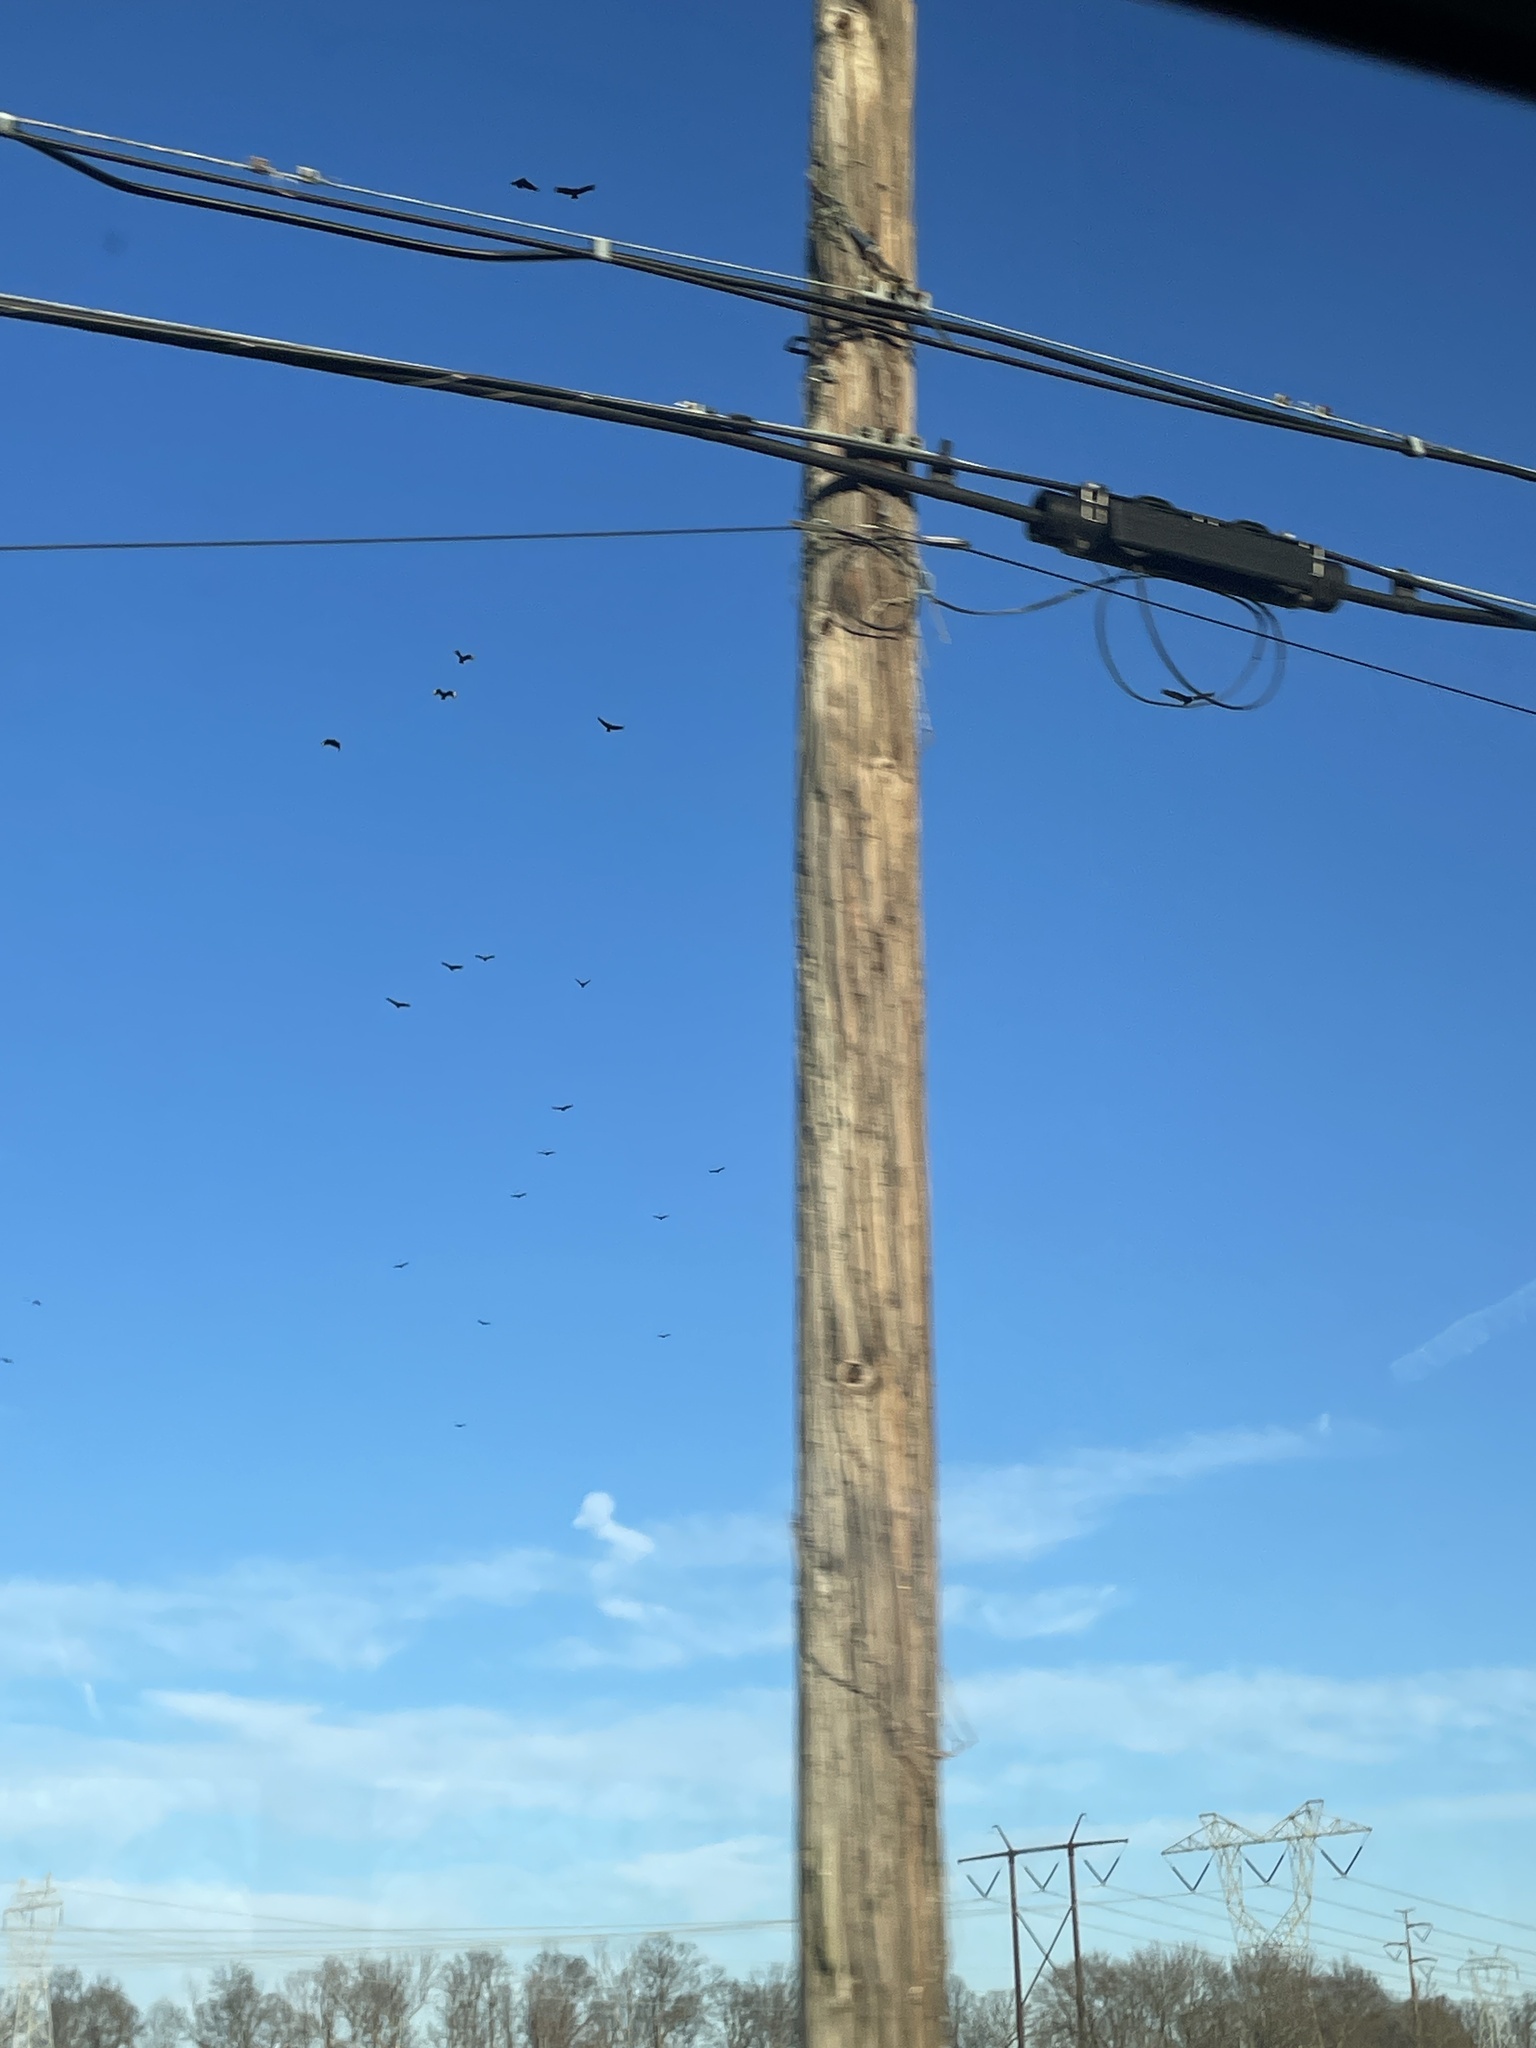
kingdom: Animalia
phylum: Chordata
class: Aves
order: Accipitriformes
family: Cathartidae
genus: Coragyps
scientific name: Coragyps atratus
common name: Black vulture
